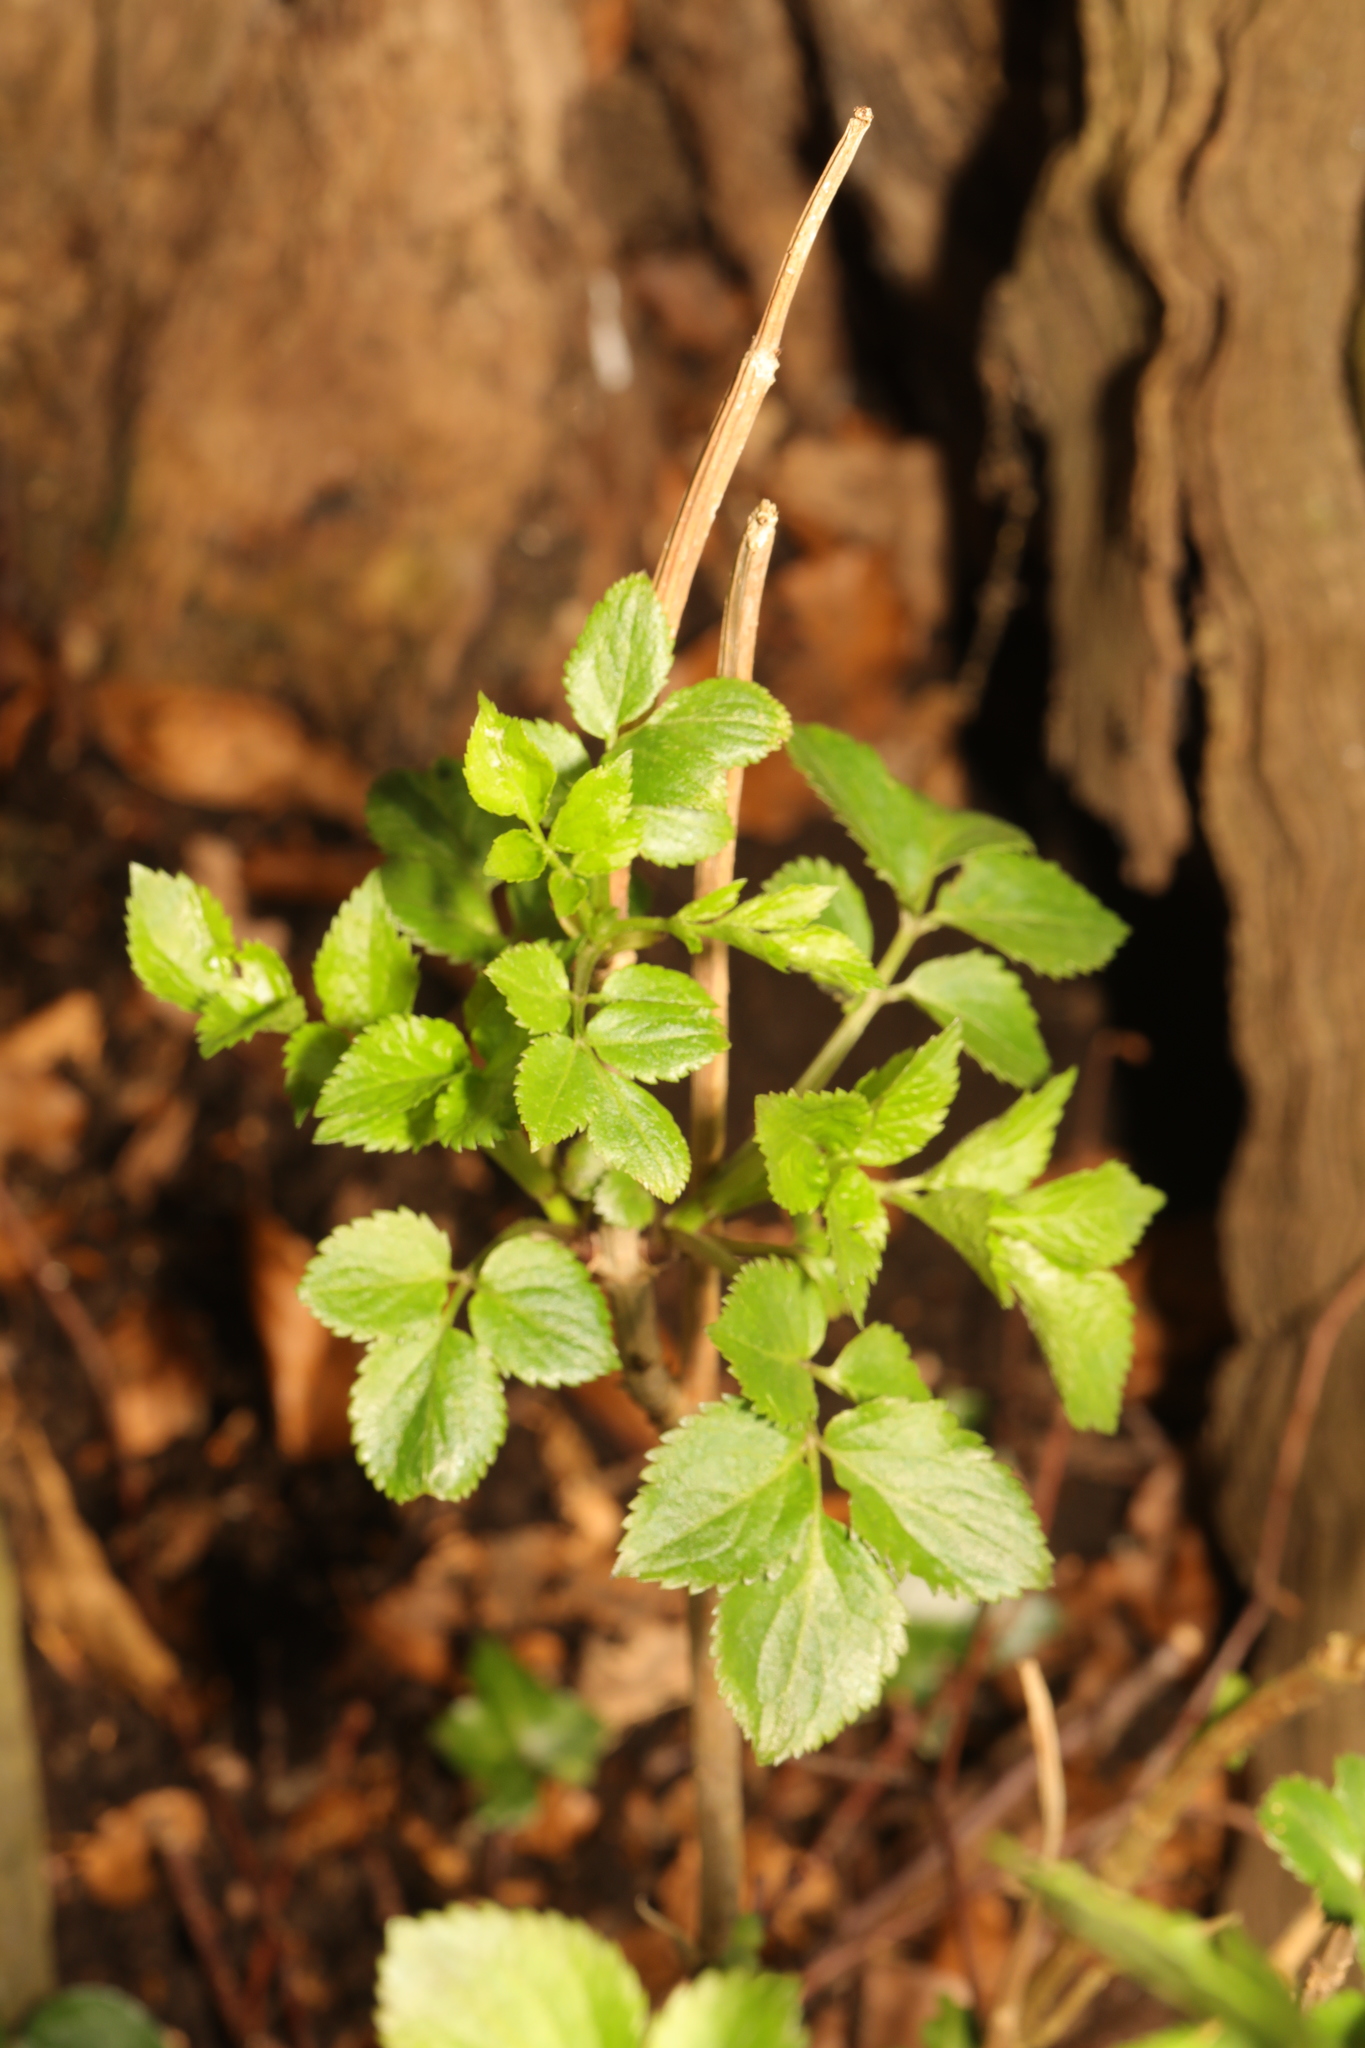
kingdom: Plantae
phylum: Tracheophyta
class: Magnoliopsida
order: Dipsacales
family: Viburnaceae
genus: Sambucus
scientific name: Sambucus nigra
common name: Elder
